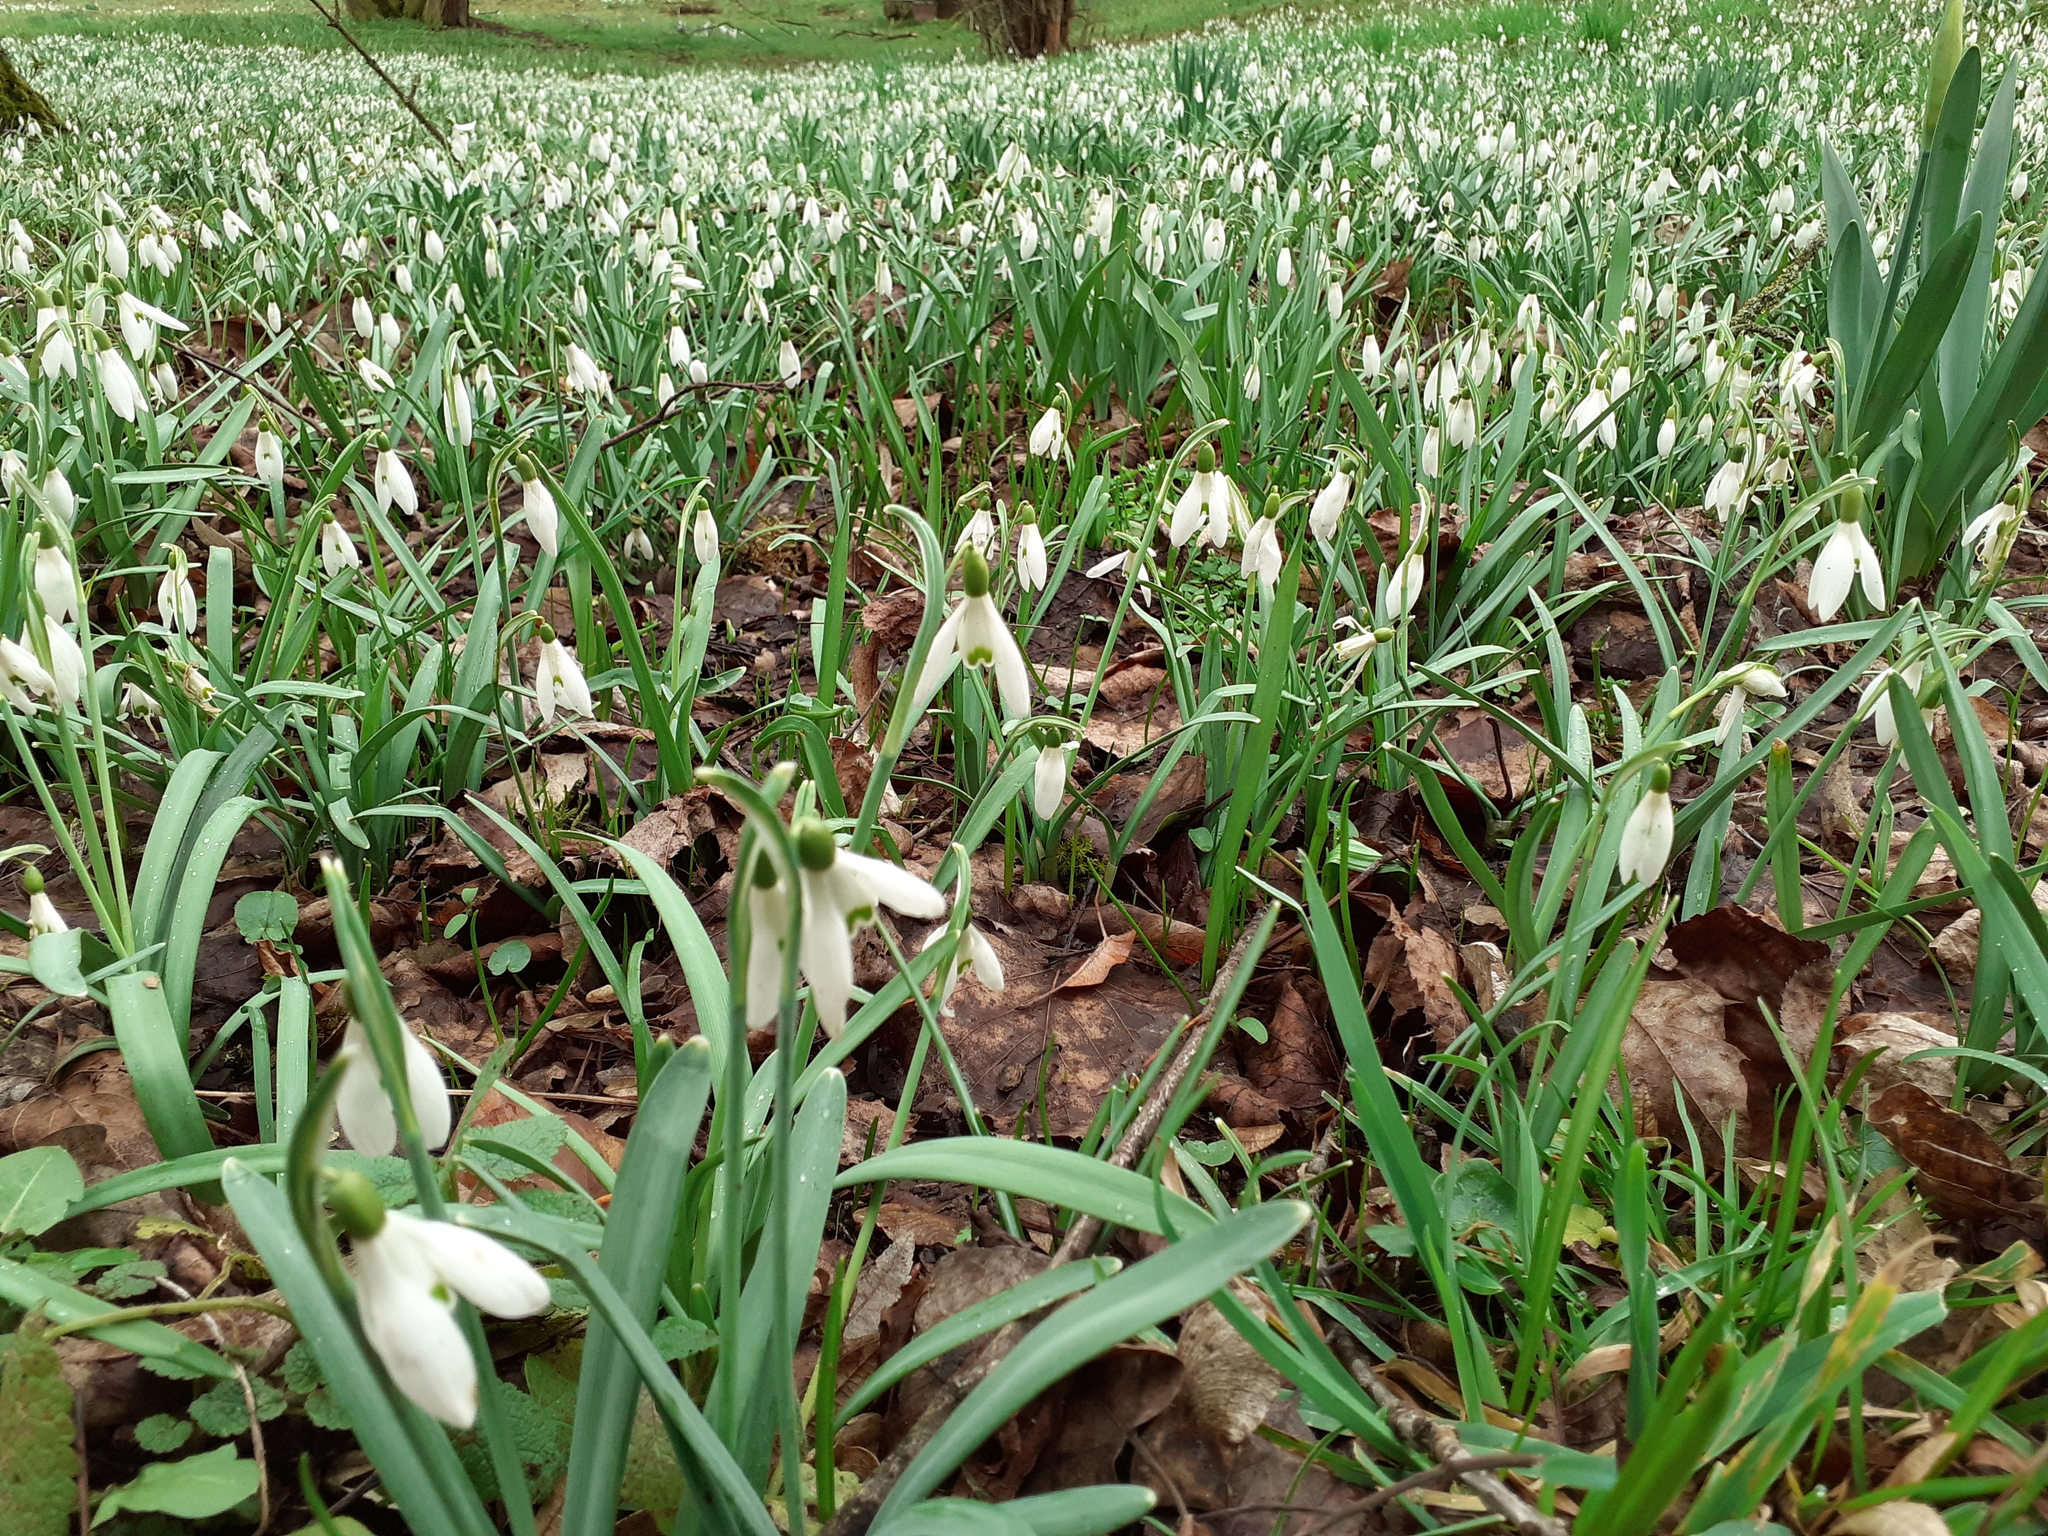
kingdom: Plantae
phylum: Tracheophyta
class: Liliopsida
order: Asparagales
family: Amaryllidaceae
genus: Galanthus
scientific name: Galanthus nivalis
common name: Snowdrop
